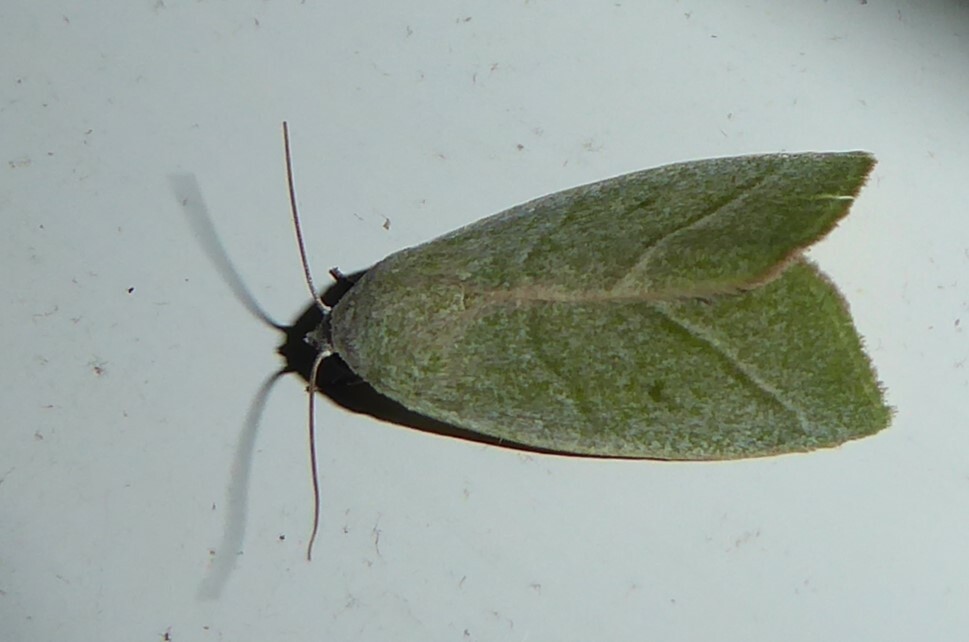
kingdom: Animalia
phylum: Arthropoda
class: Insecta
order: Lepidoptera
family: Nolidae
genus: Earias
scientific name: Earias subviridis
